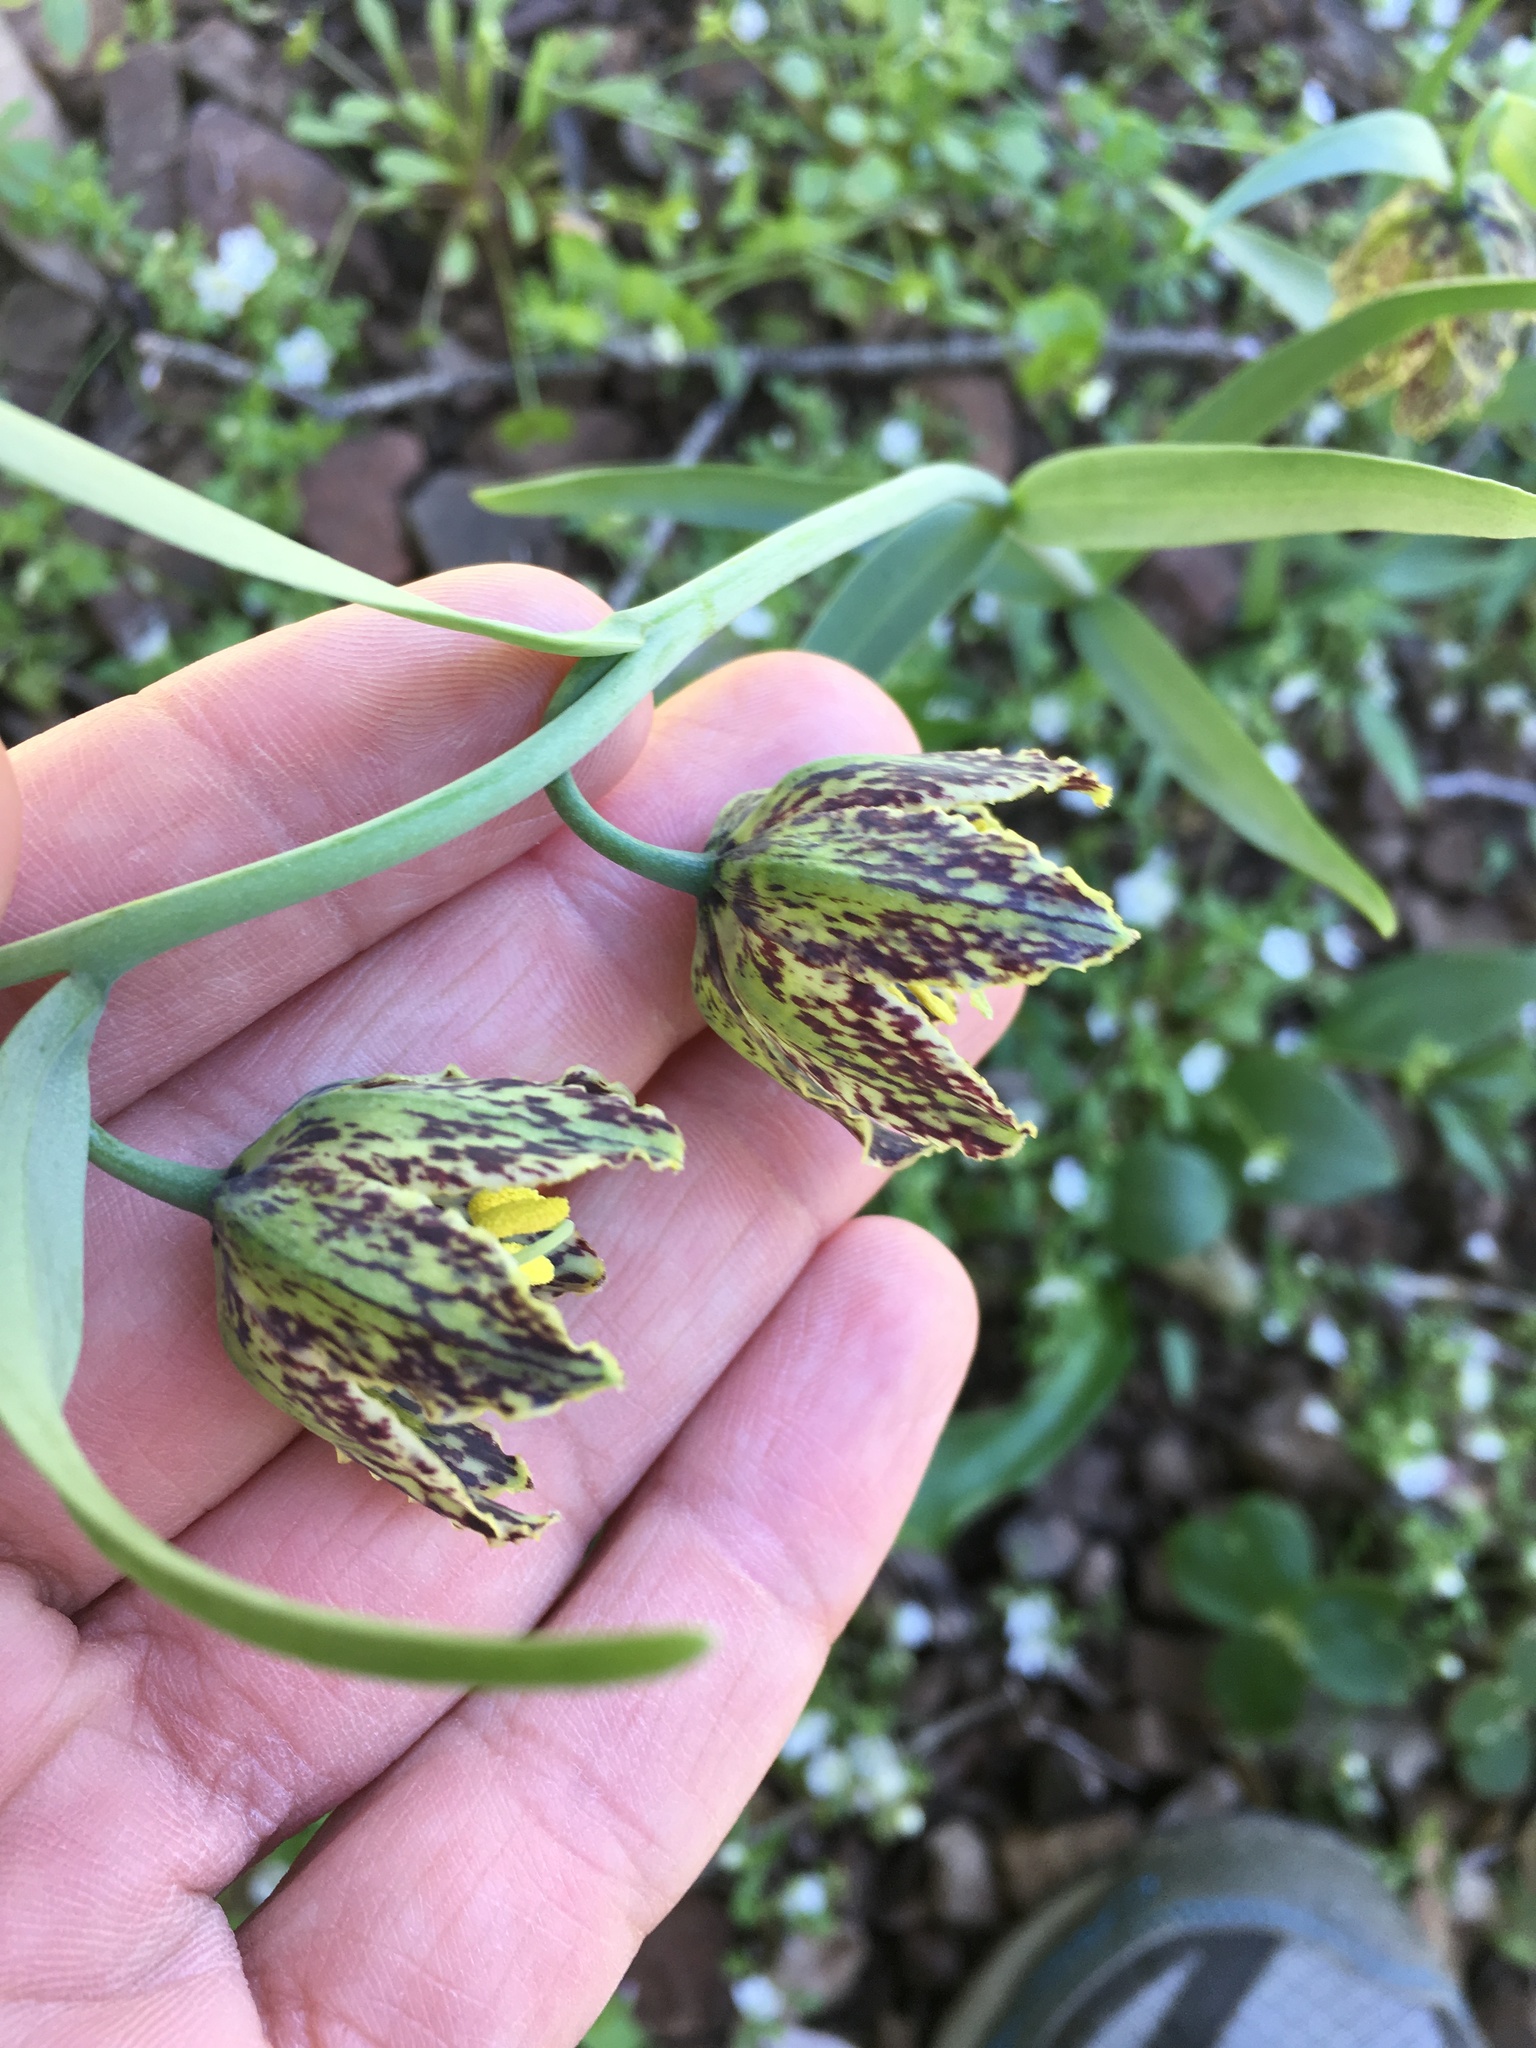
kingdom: Plantae
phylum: Tracheophyta
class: Liliopsida
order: Liliales
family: Liliaceae
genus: Fritillaria
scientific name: Fritillaria affinis
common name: Ojai fritillary
